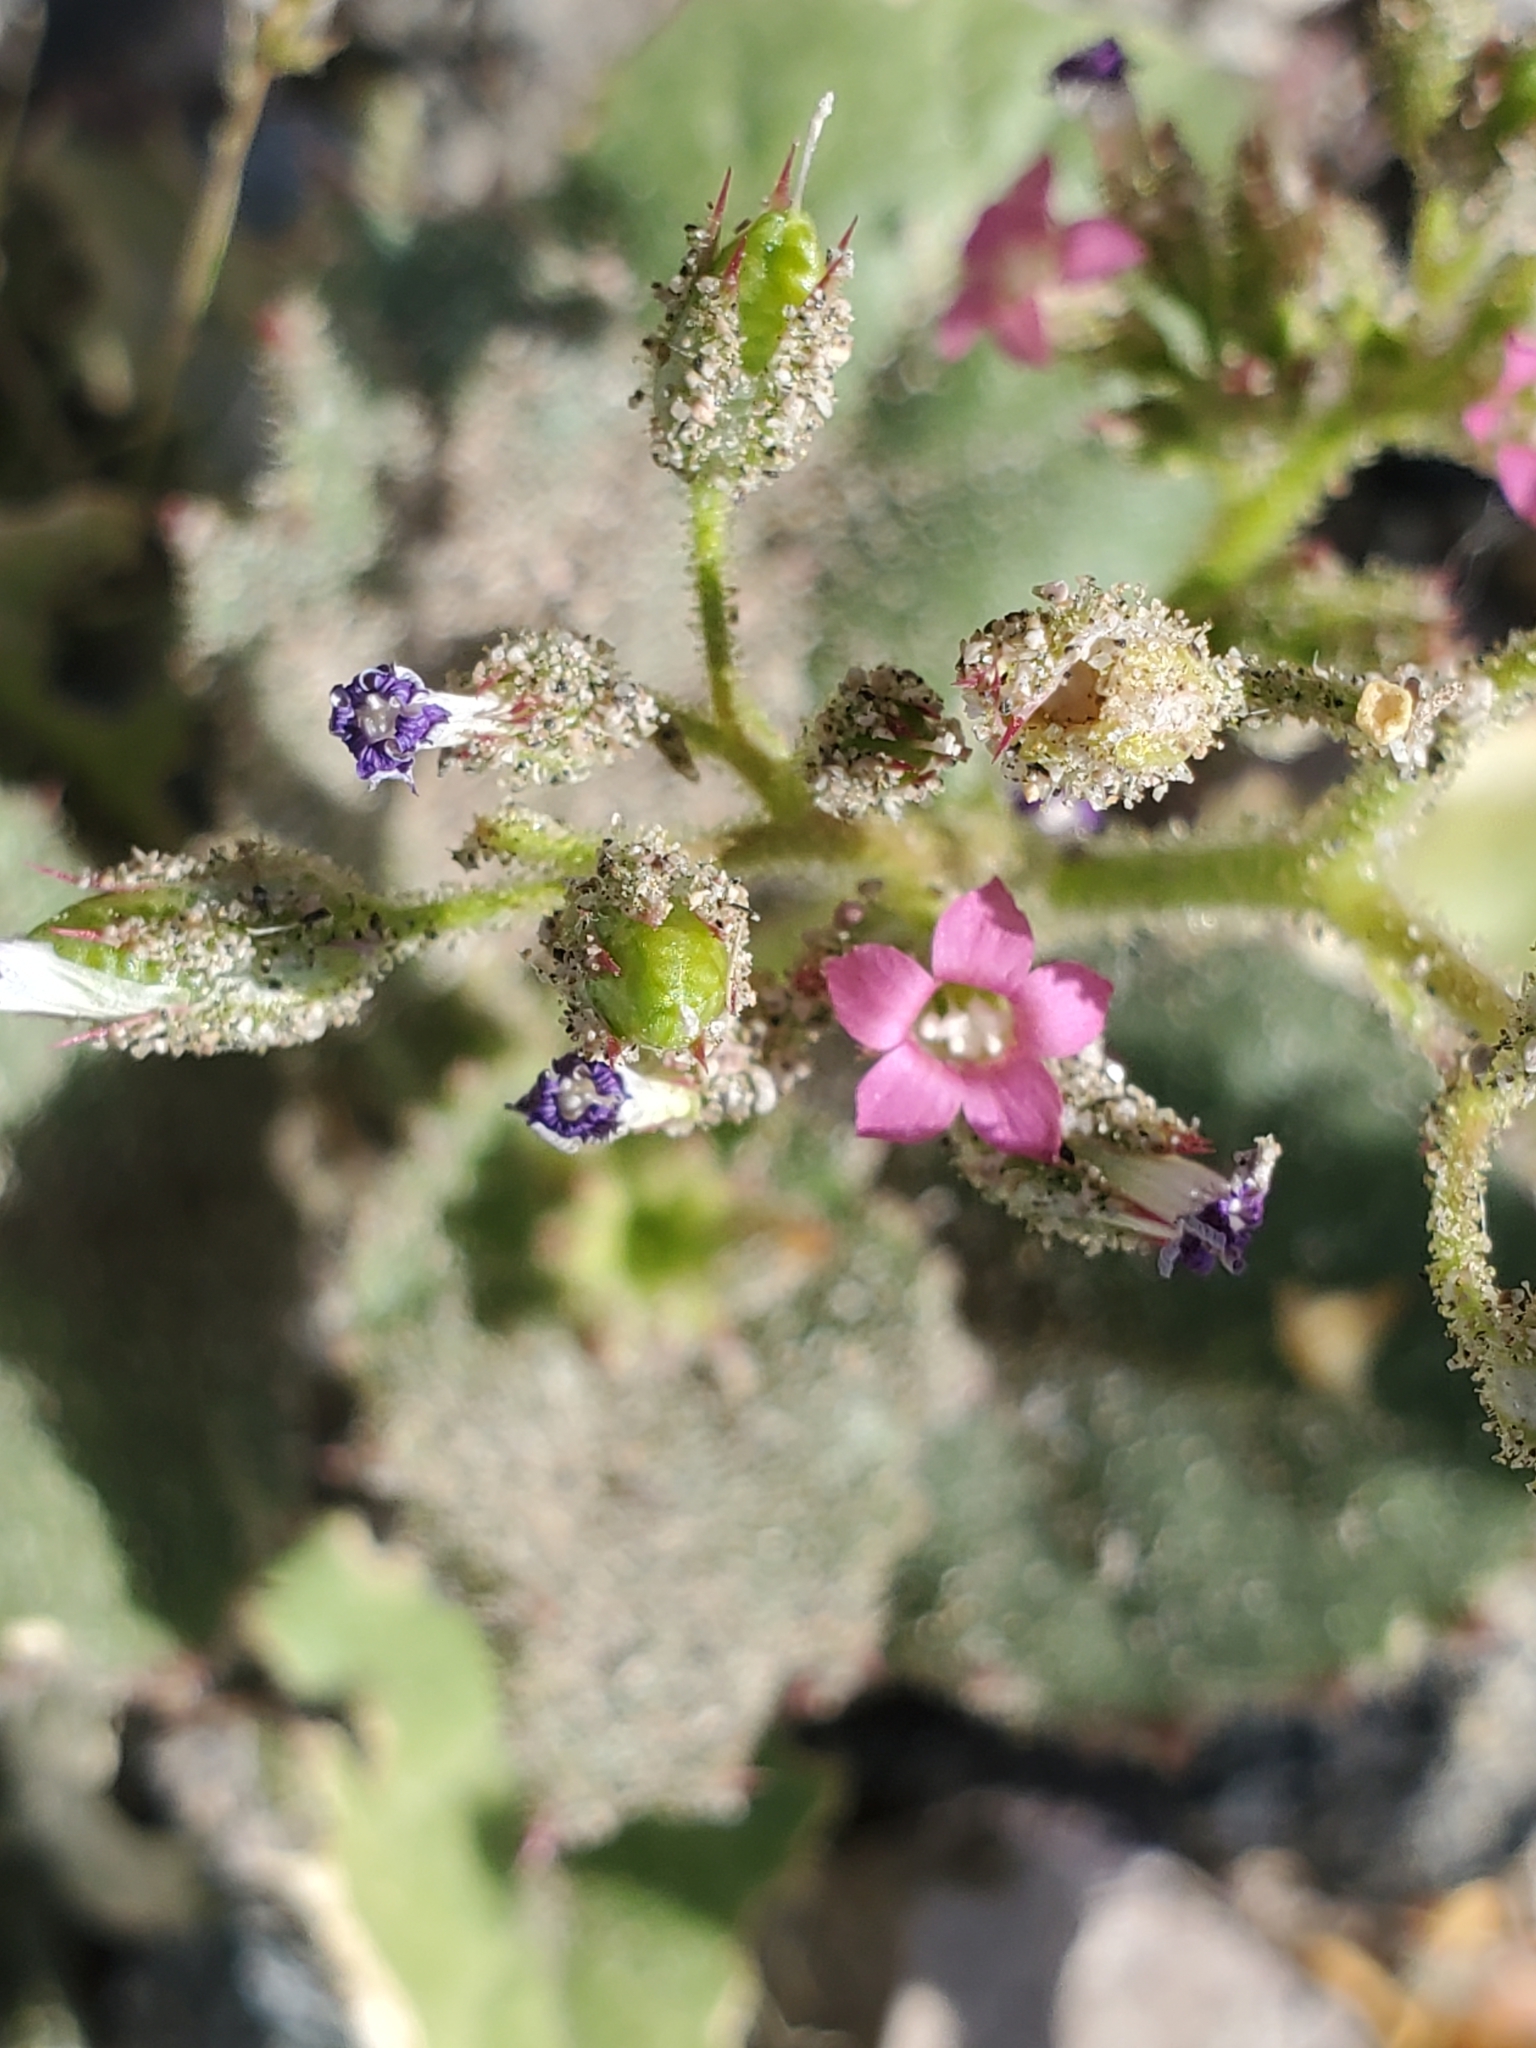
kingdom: Plantae
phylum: Tracheophyta
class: Magnoliopsida
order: Ericales
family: Polemoniaceae
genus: Aliciella
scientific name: Aliciella latifolia
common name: Broad-leaf gilia
